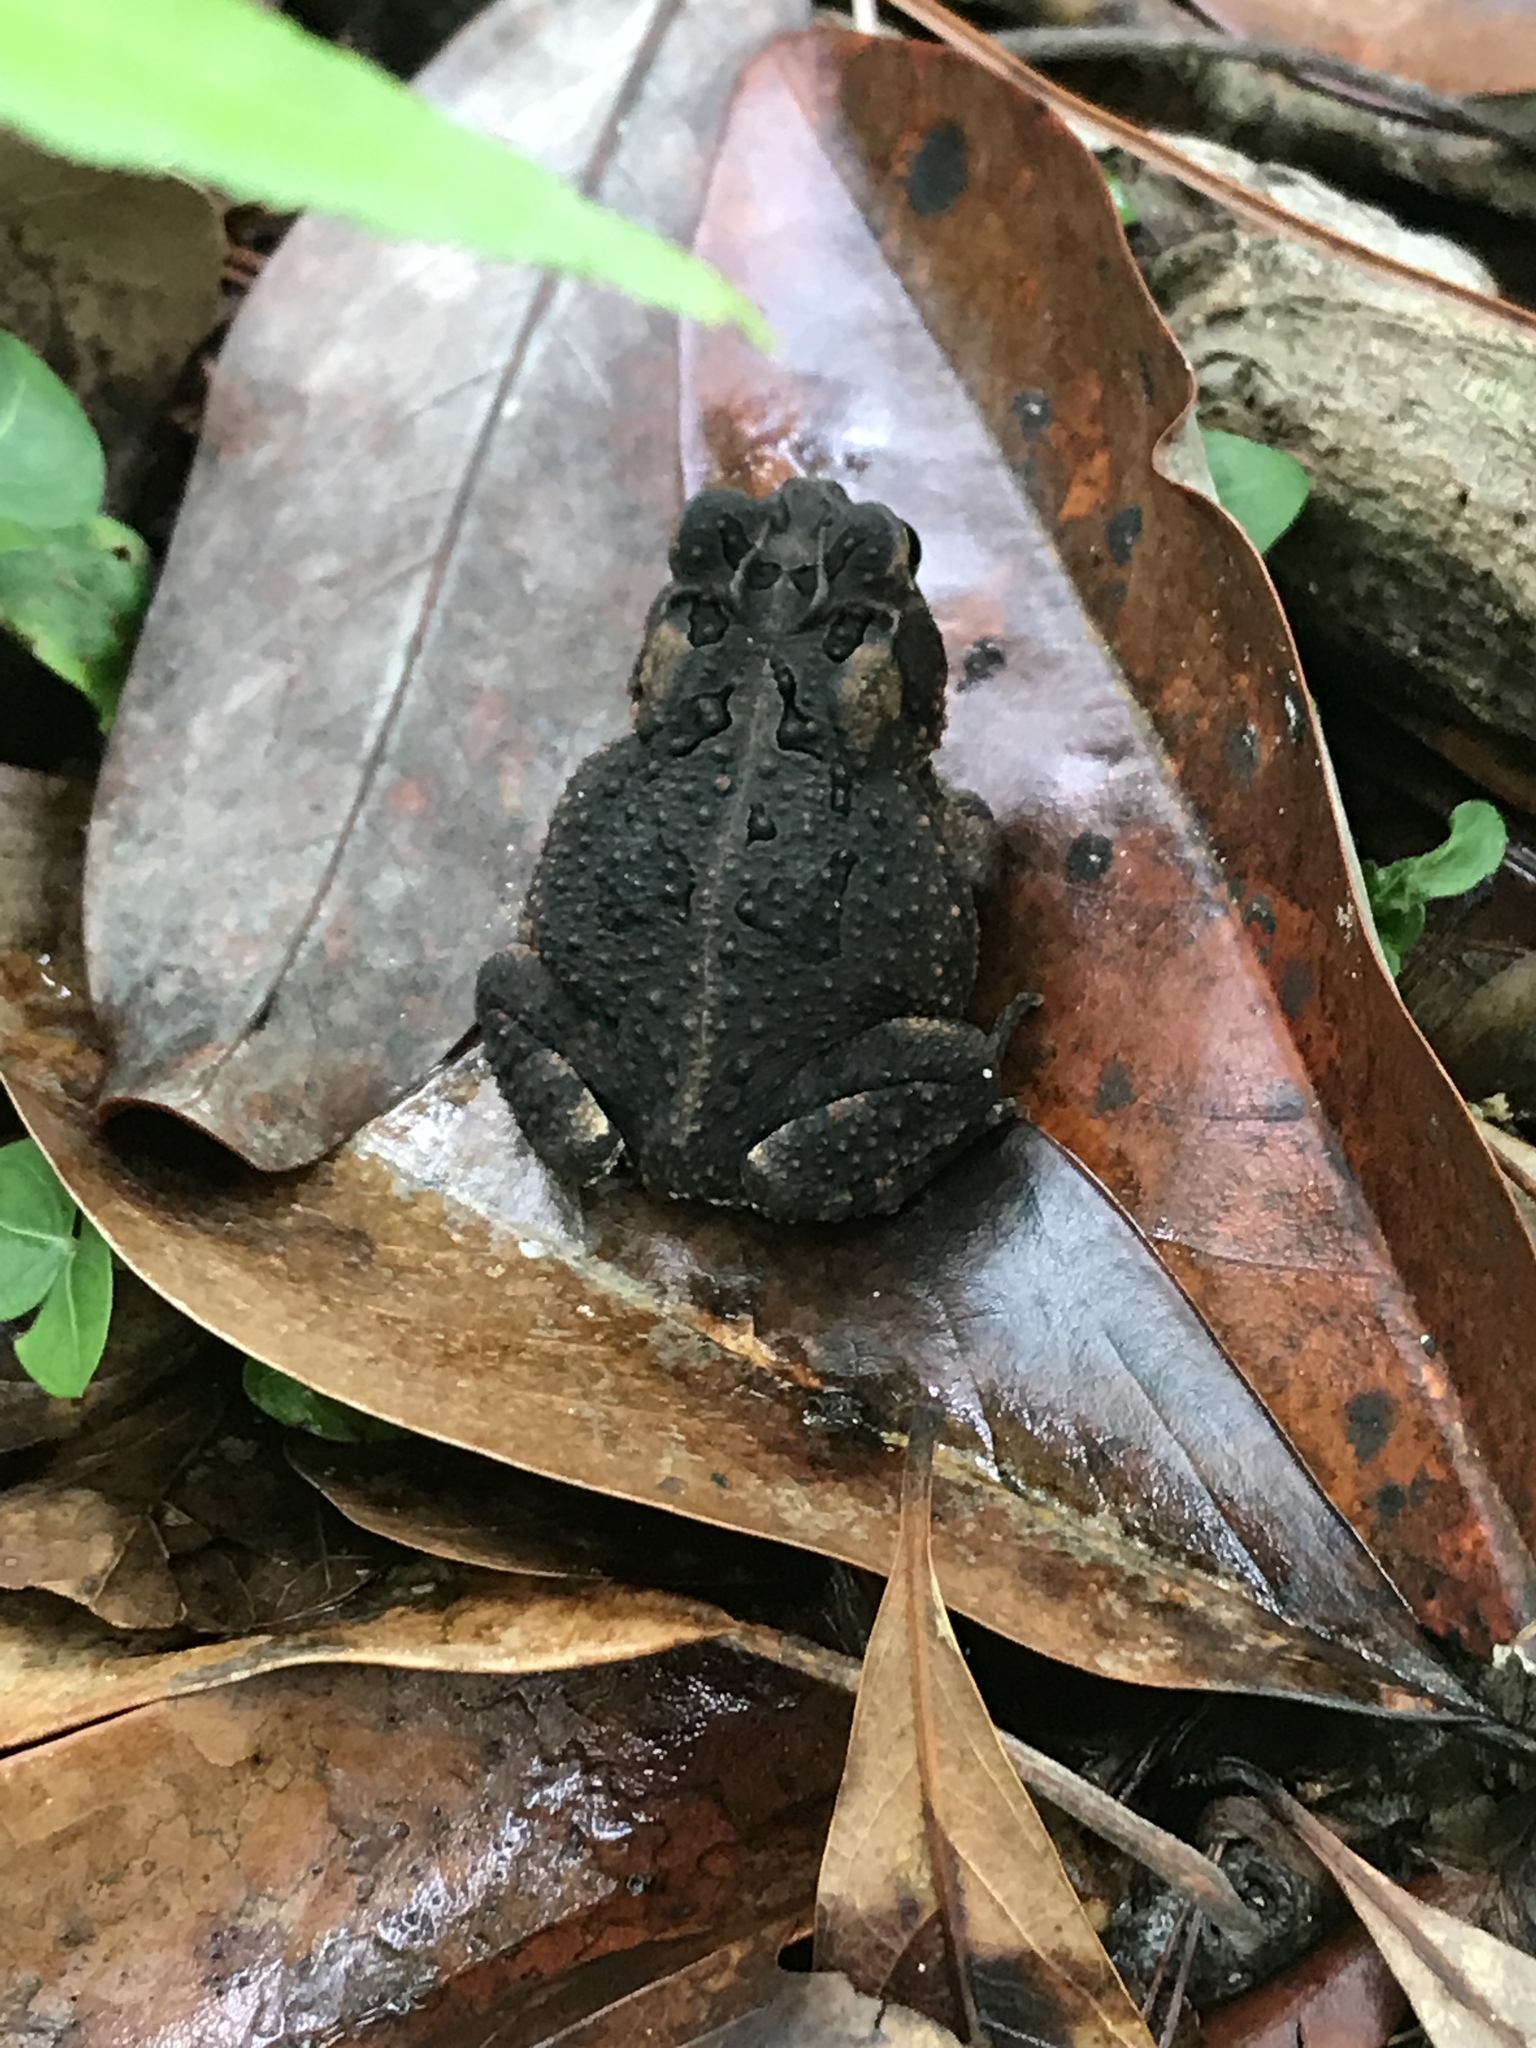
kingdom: Animalia
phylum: Chordata
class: Amphibia
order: Anura
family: Bufonidae
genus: Anaxyrus
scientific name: Anaxyrus terrestris
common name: Southern toad
